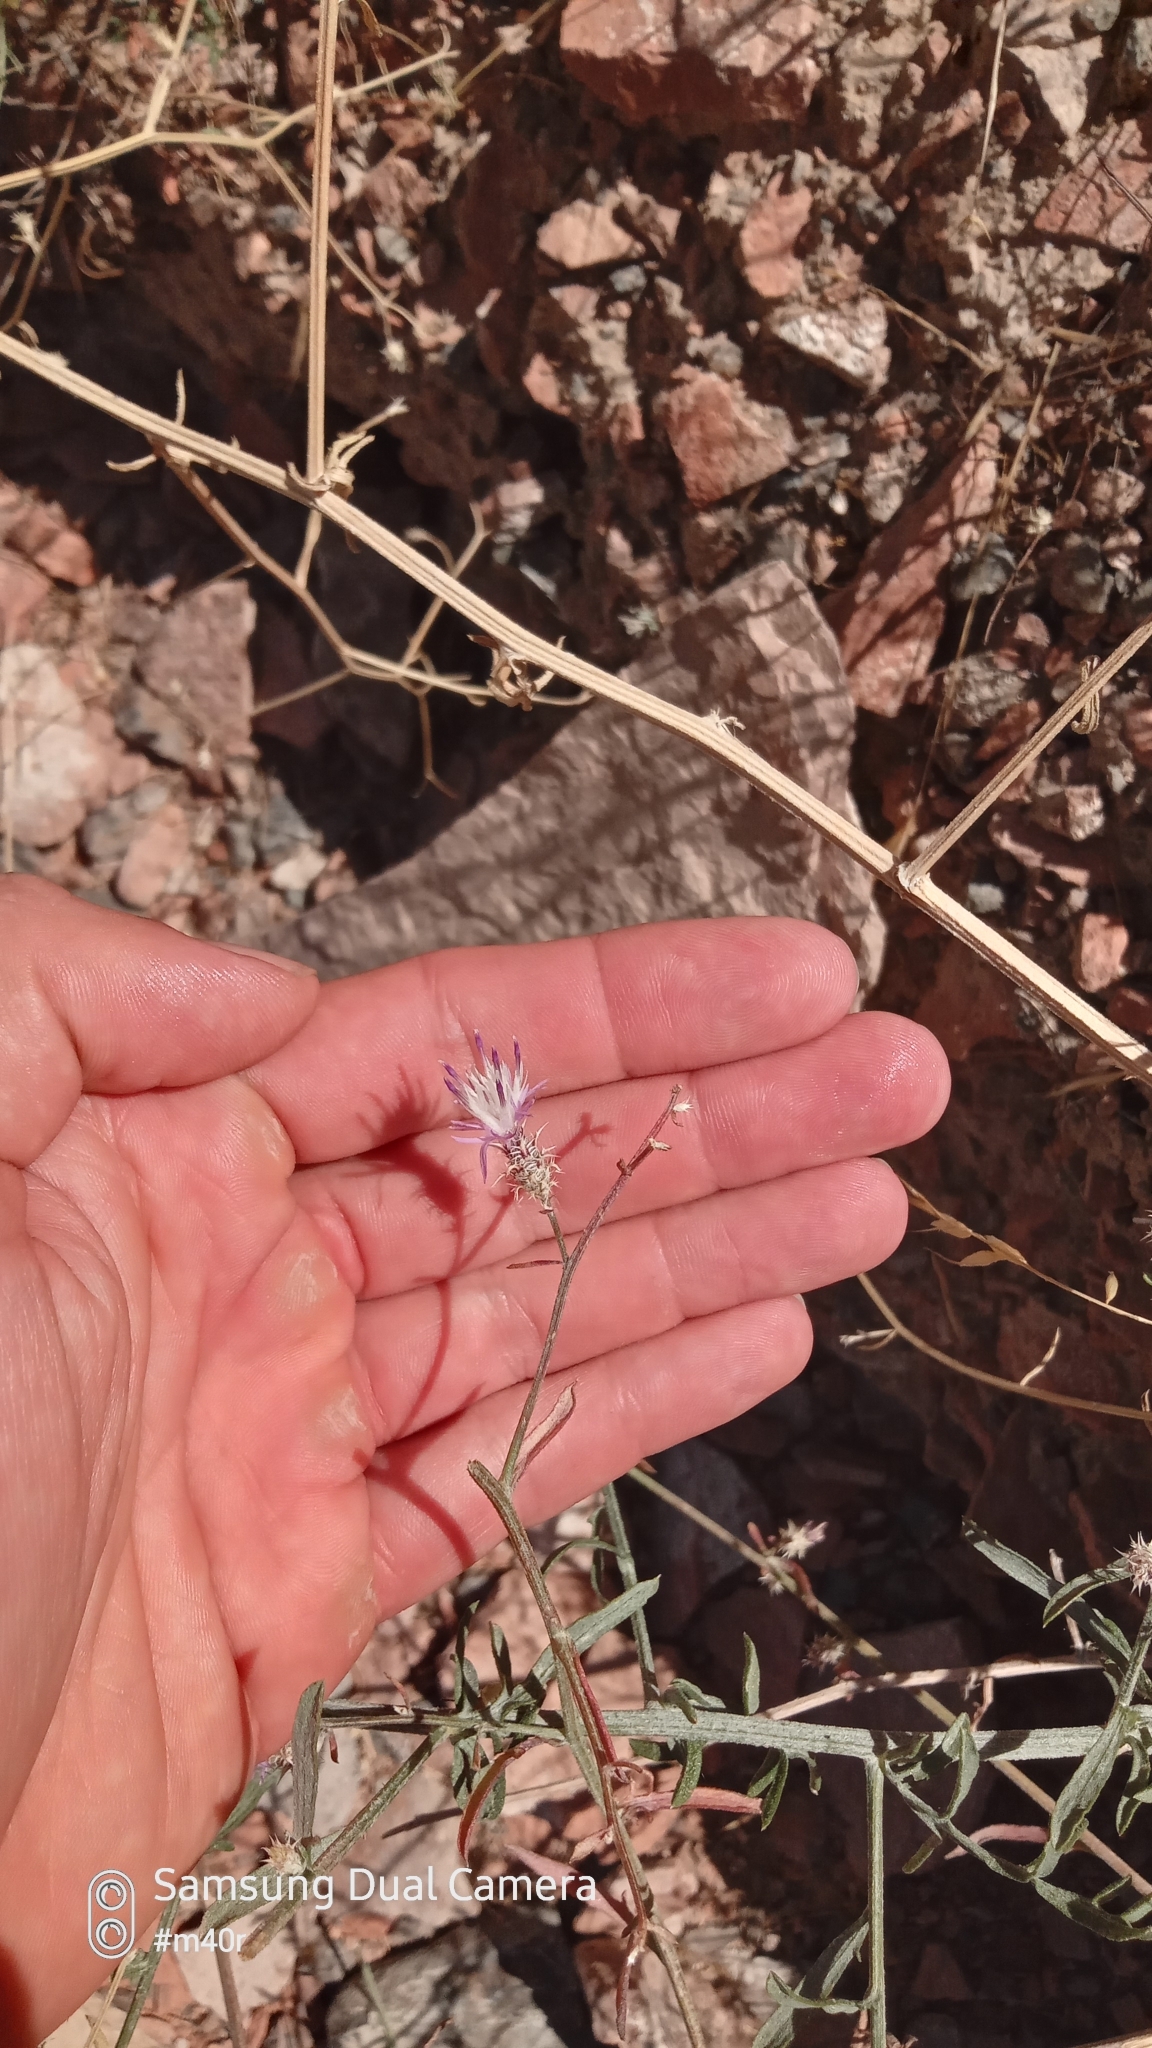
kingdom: Plantae
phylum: Tracheophyta
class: Magnoliopsida
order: Asterales
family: Asteraceae
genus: Centaurea
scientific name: Centaurea virgata
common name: Squarrose knapweed
